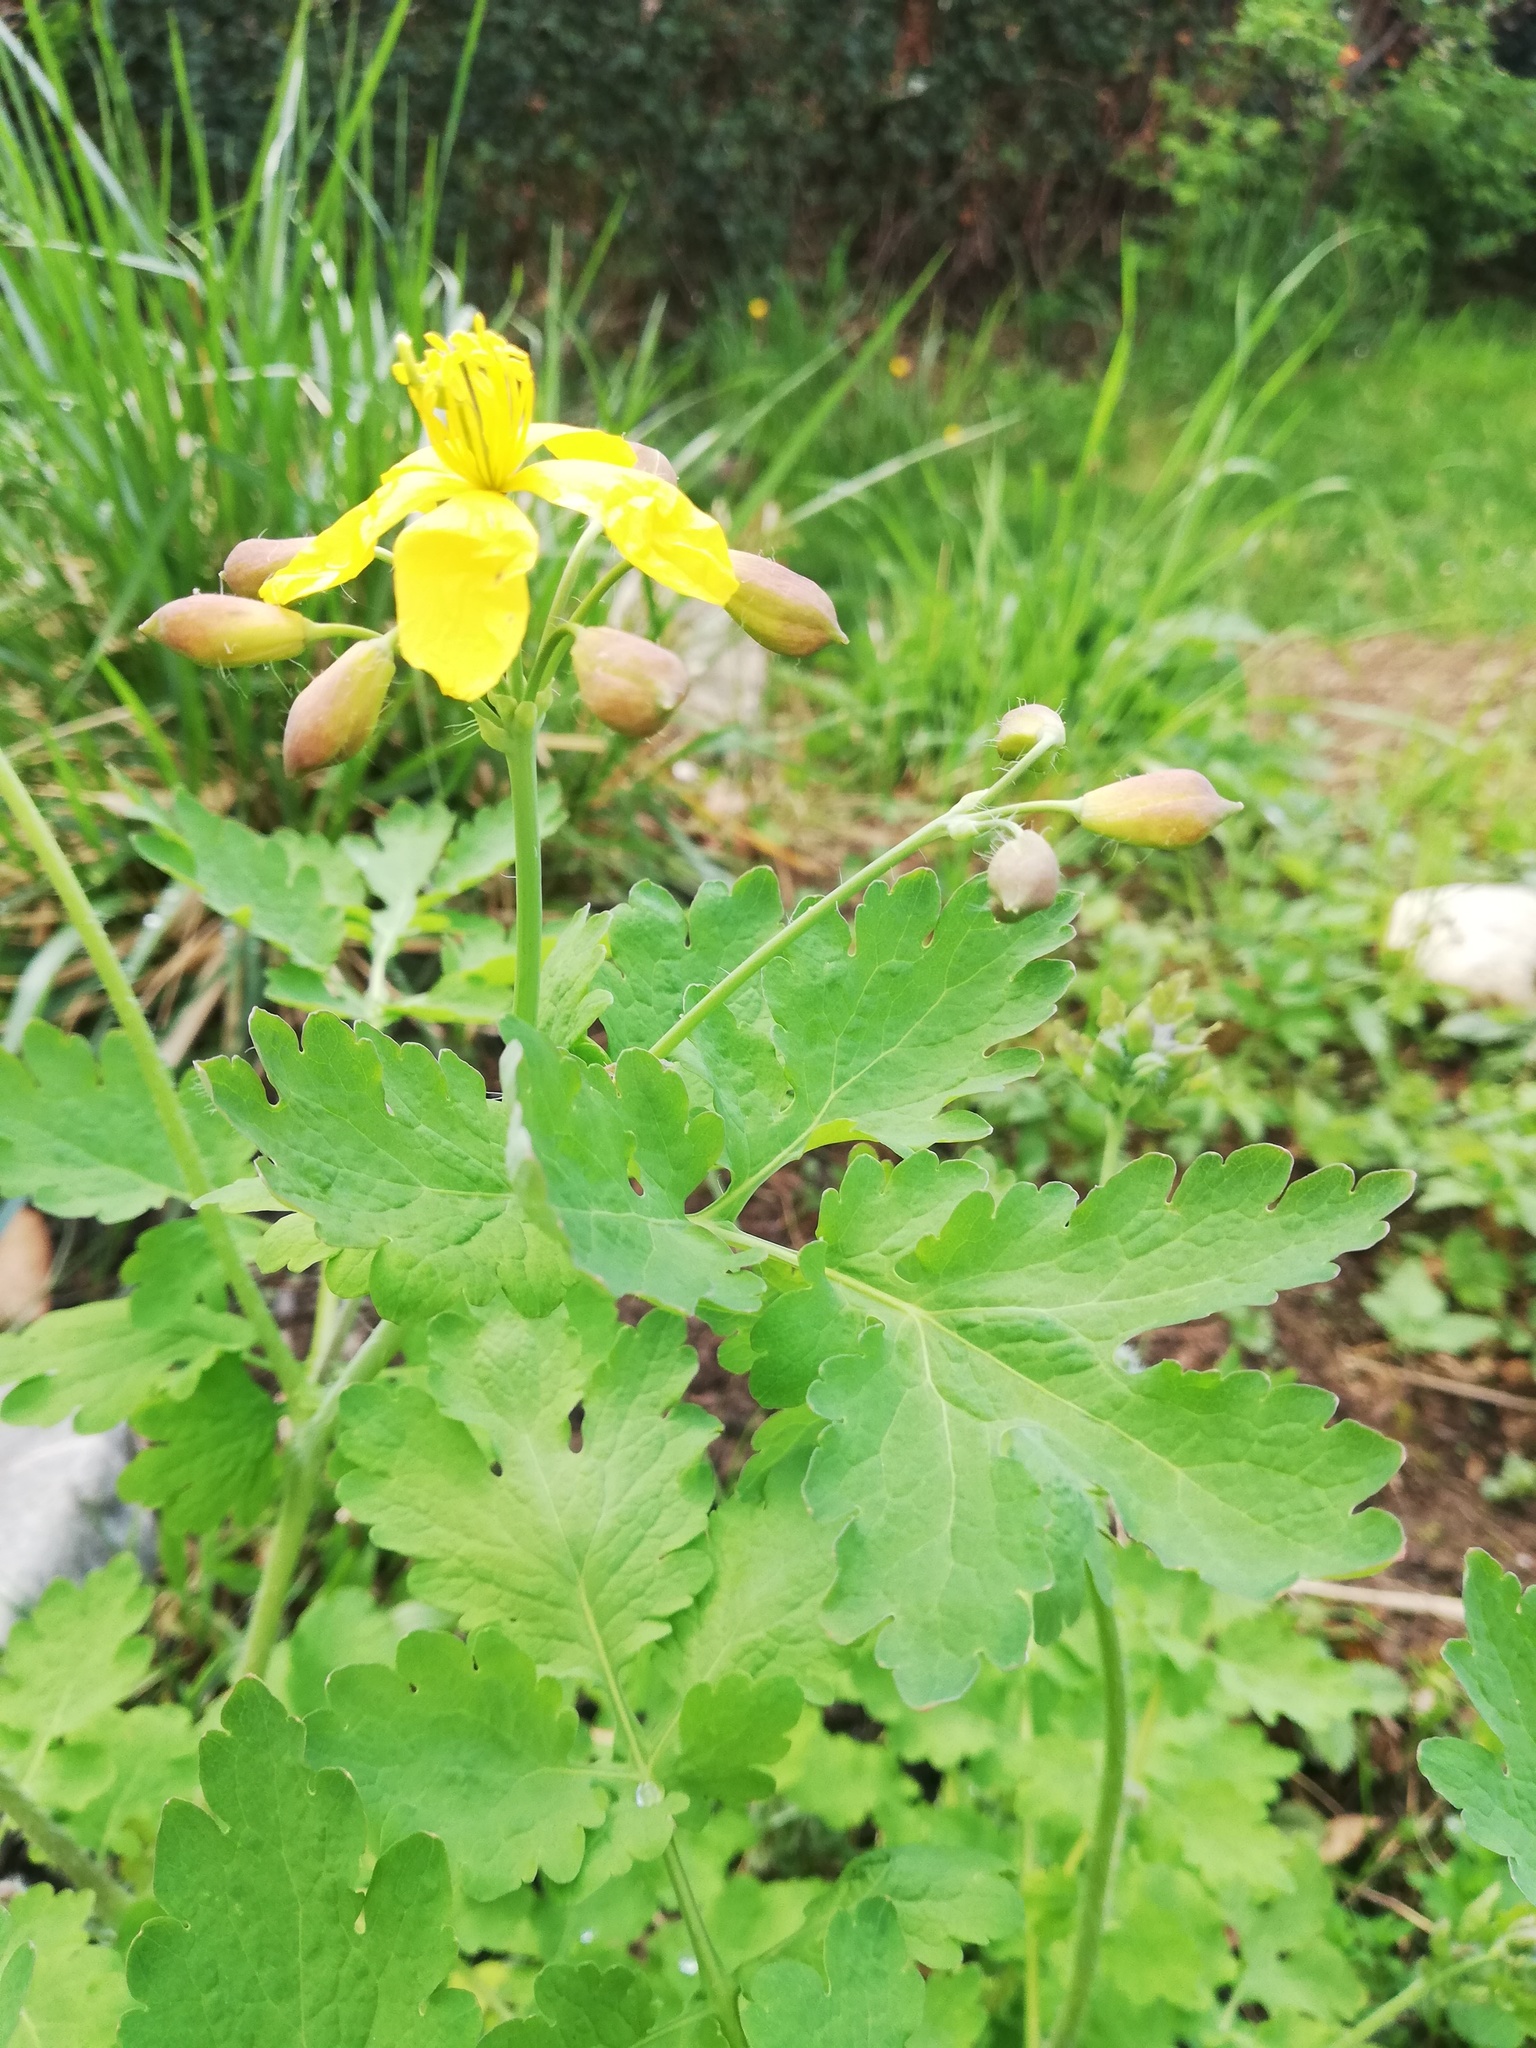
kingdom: Plantae
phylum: Tracheophyta
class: Magnoliopsida
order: Ranunculales
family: Papaveraceae
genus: Chelidonium
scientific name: Chelidonium majus
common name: Greater celandine
